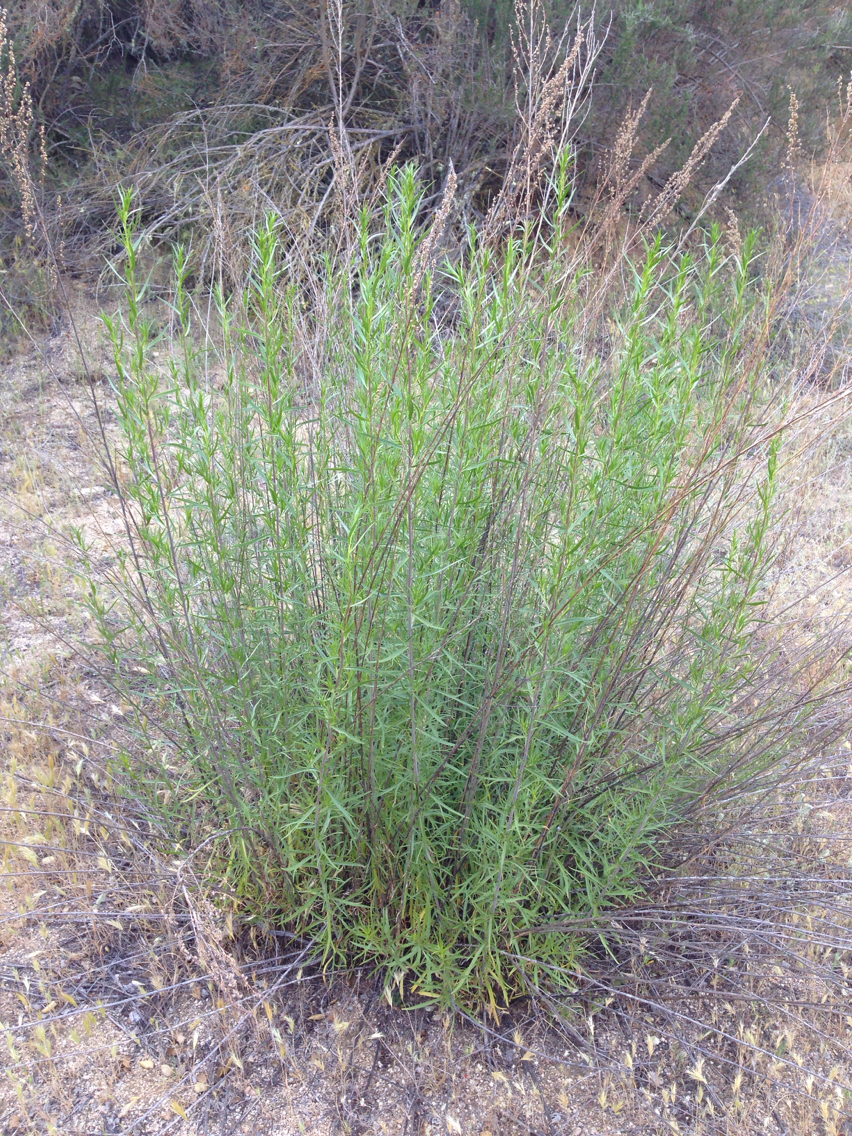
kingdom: Plantae
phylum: Tracheophyta
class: Magnoliopsida
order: Asterales
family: Asteraceae
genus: Artemisia
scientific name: Artemisia dracunculus
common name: Tarragon
